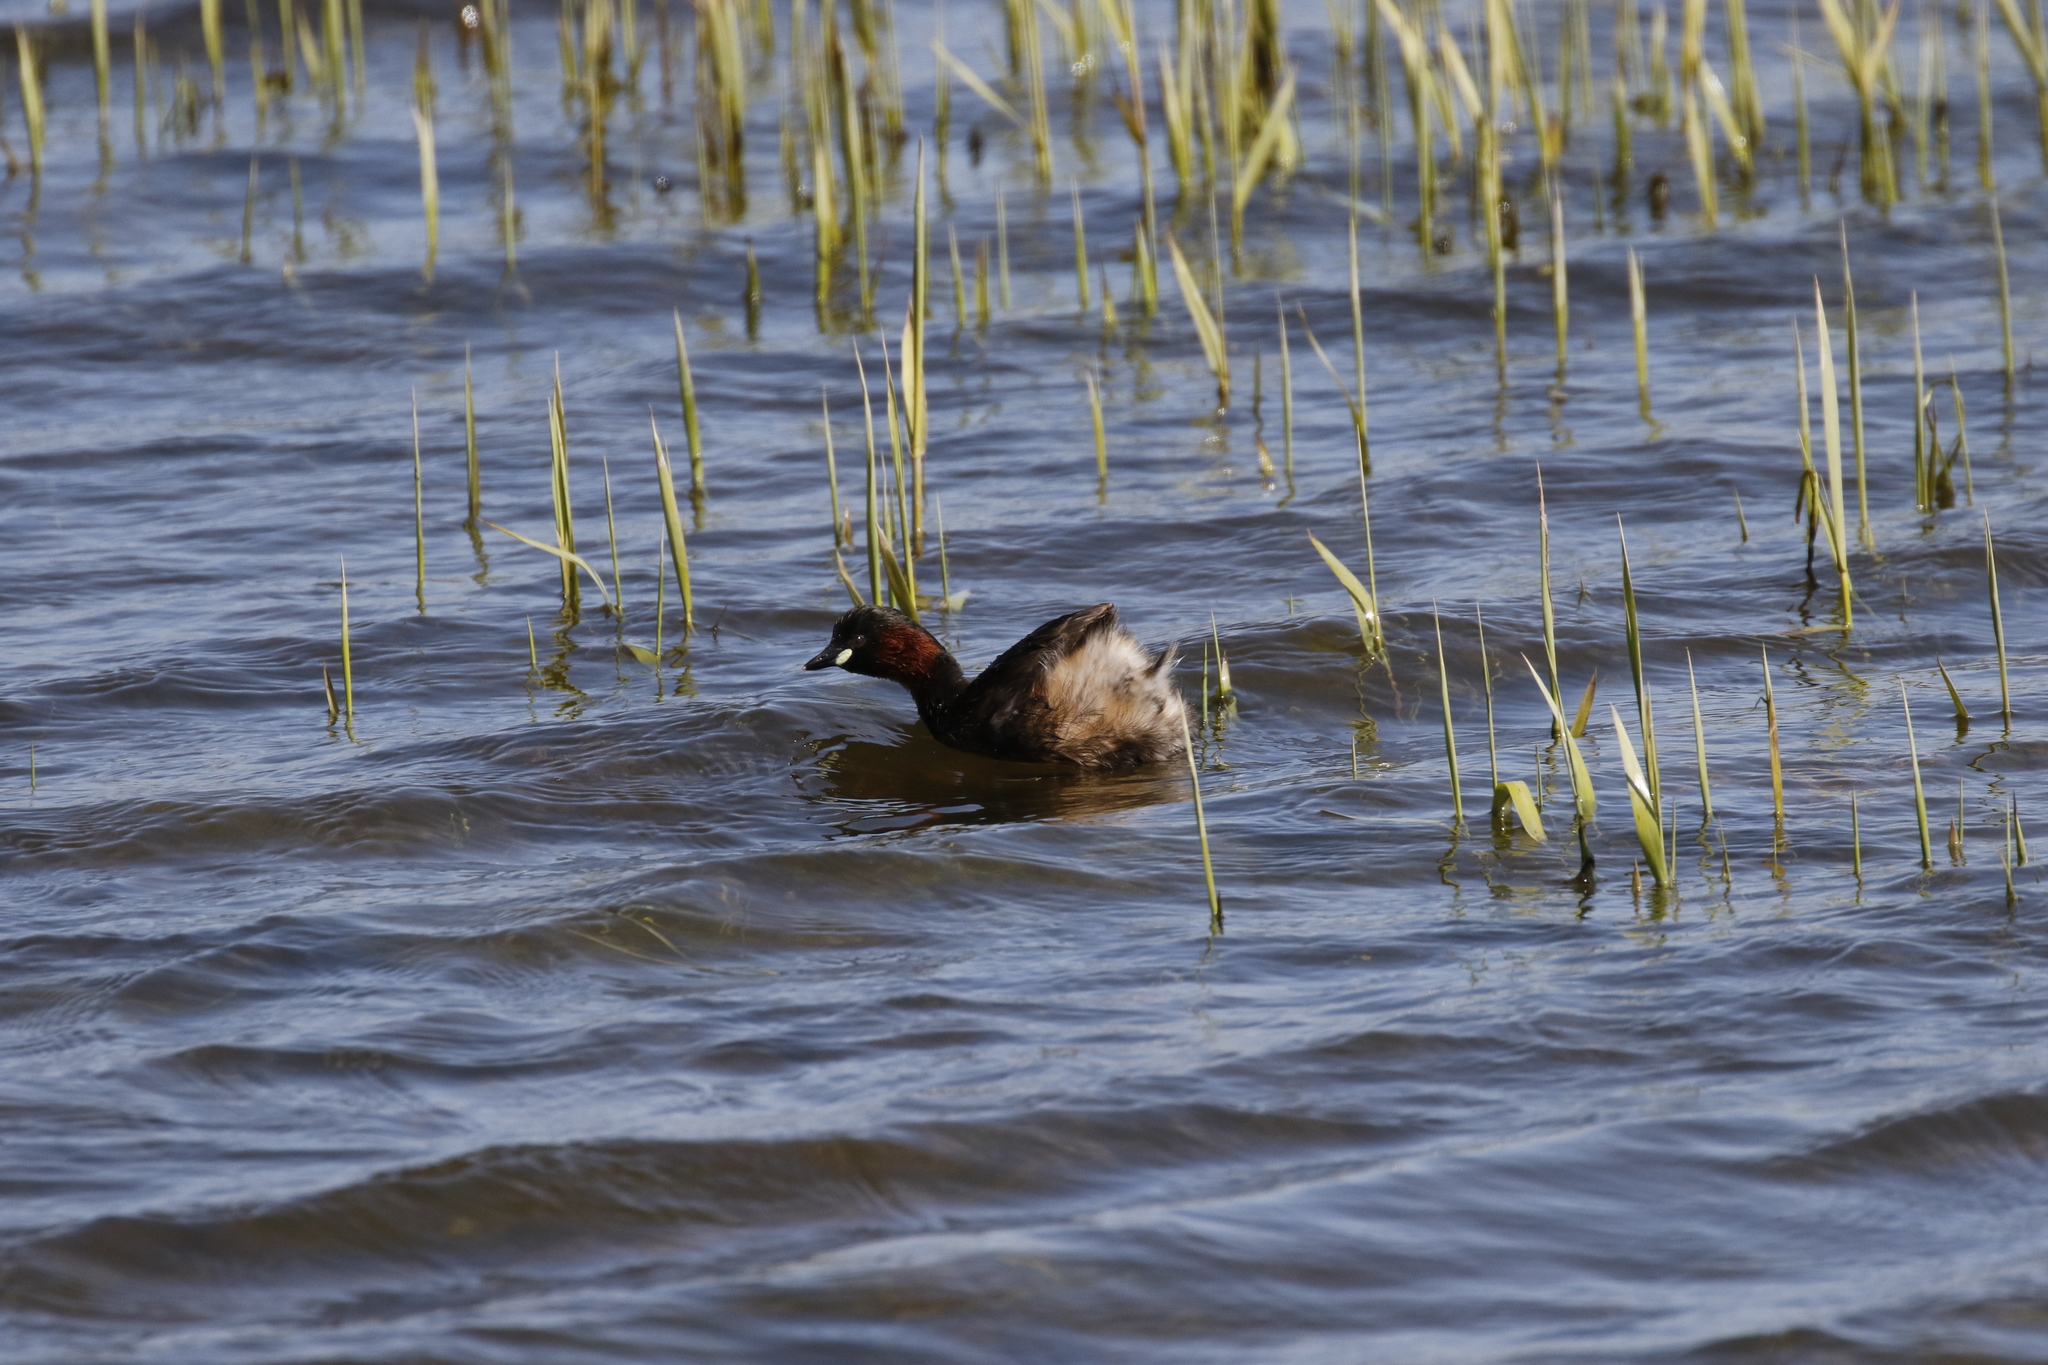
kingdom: Animalia
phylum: Chordata
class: Aves
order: Podicipediformes
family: Podicipedidae
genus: Tachybaptus
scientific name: Tachybaptus ruficollis
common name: Little grebe
